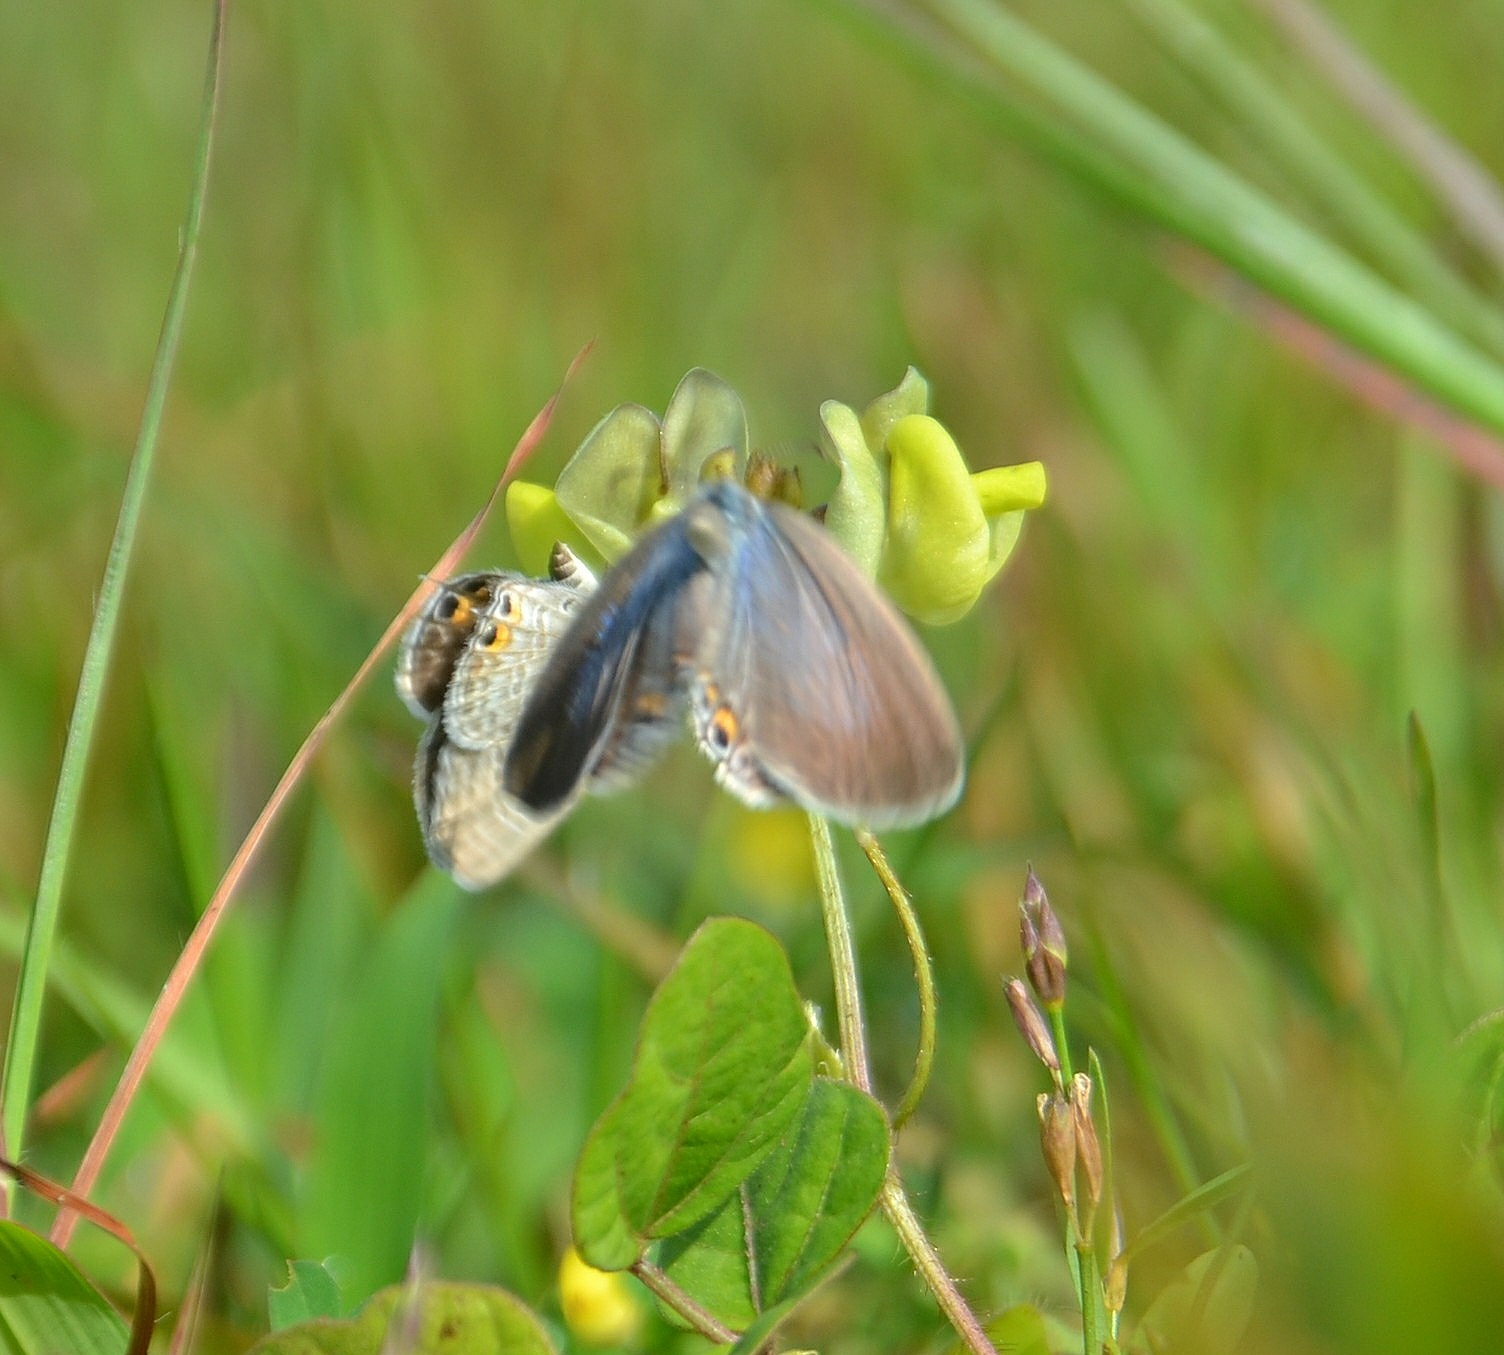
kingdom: Animalia
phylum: Arthropoda
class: Insecta
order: Lepidoptera
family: Lycaenidae
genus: Euchrysops
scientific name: Euchrysops cnejus
